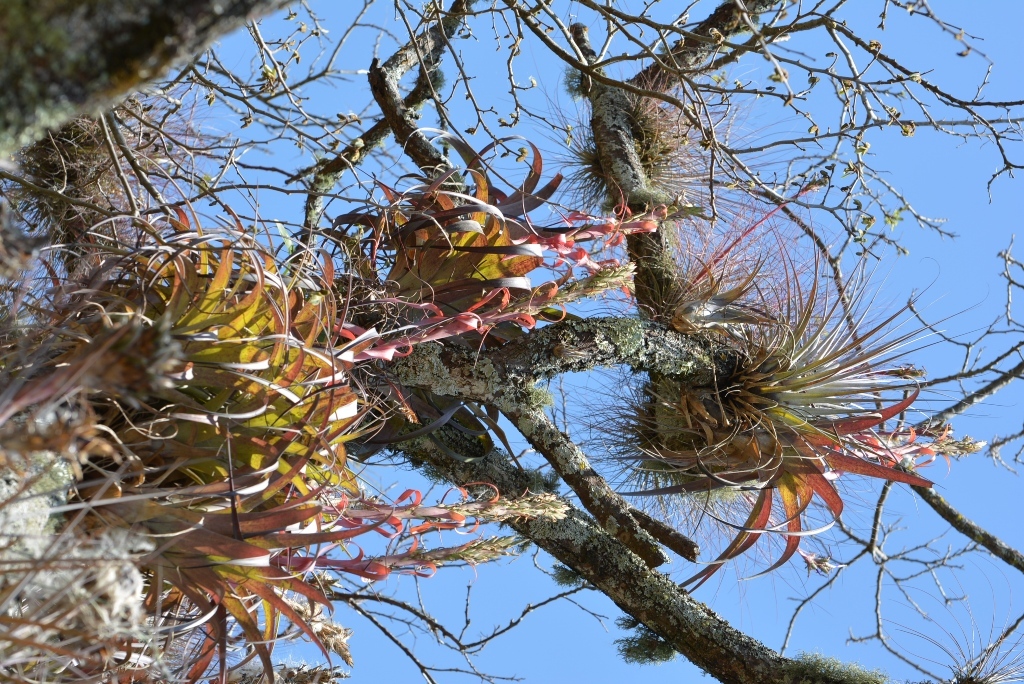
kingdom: Plantae
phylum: Tracheophyta
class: Liliopsida
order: Poales
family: Bromeliaceae
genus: Tillandsia
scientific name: Tillandsia polystachia
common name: Airplant
